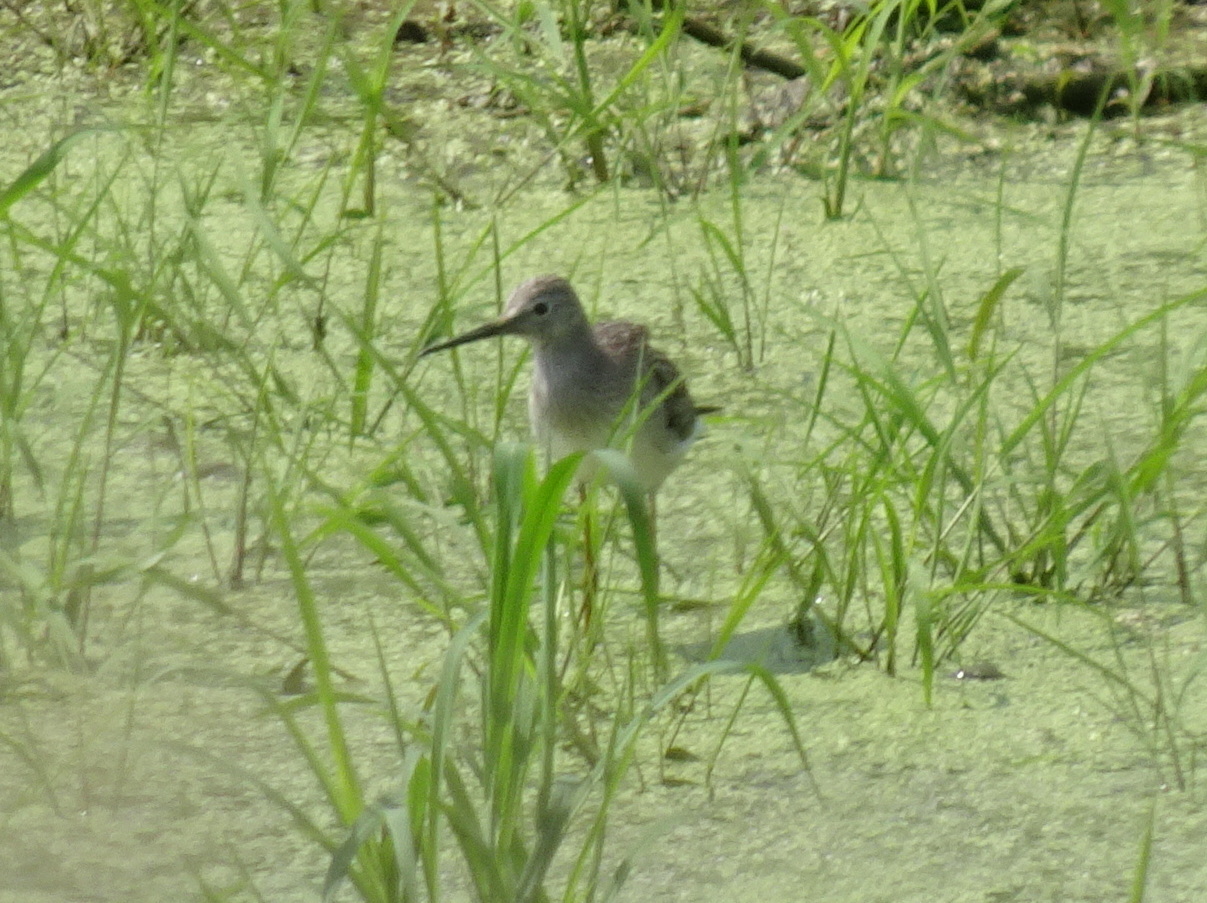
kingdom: Animalia
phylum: Chordata
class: Aves
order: Charadriiformes
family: Scolopacidae
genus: Tringa
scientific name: Tringa melanoleuca
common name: Greater yellowlegs
